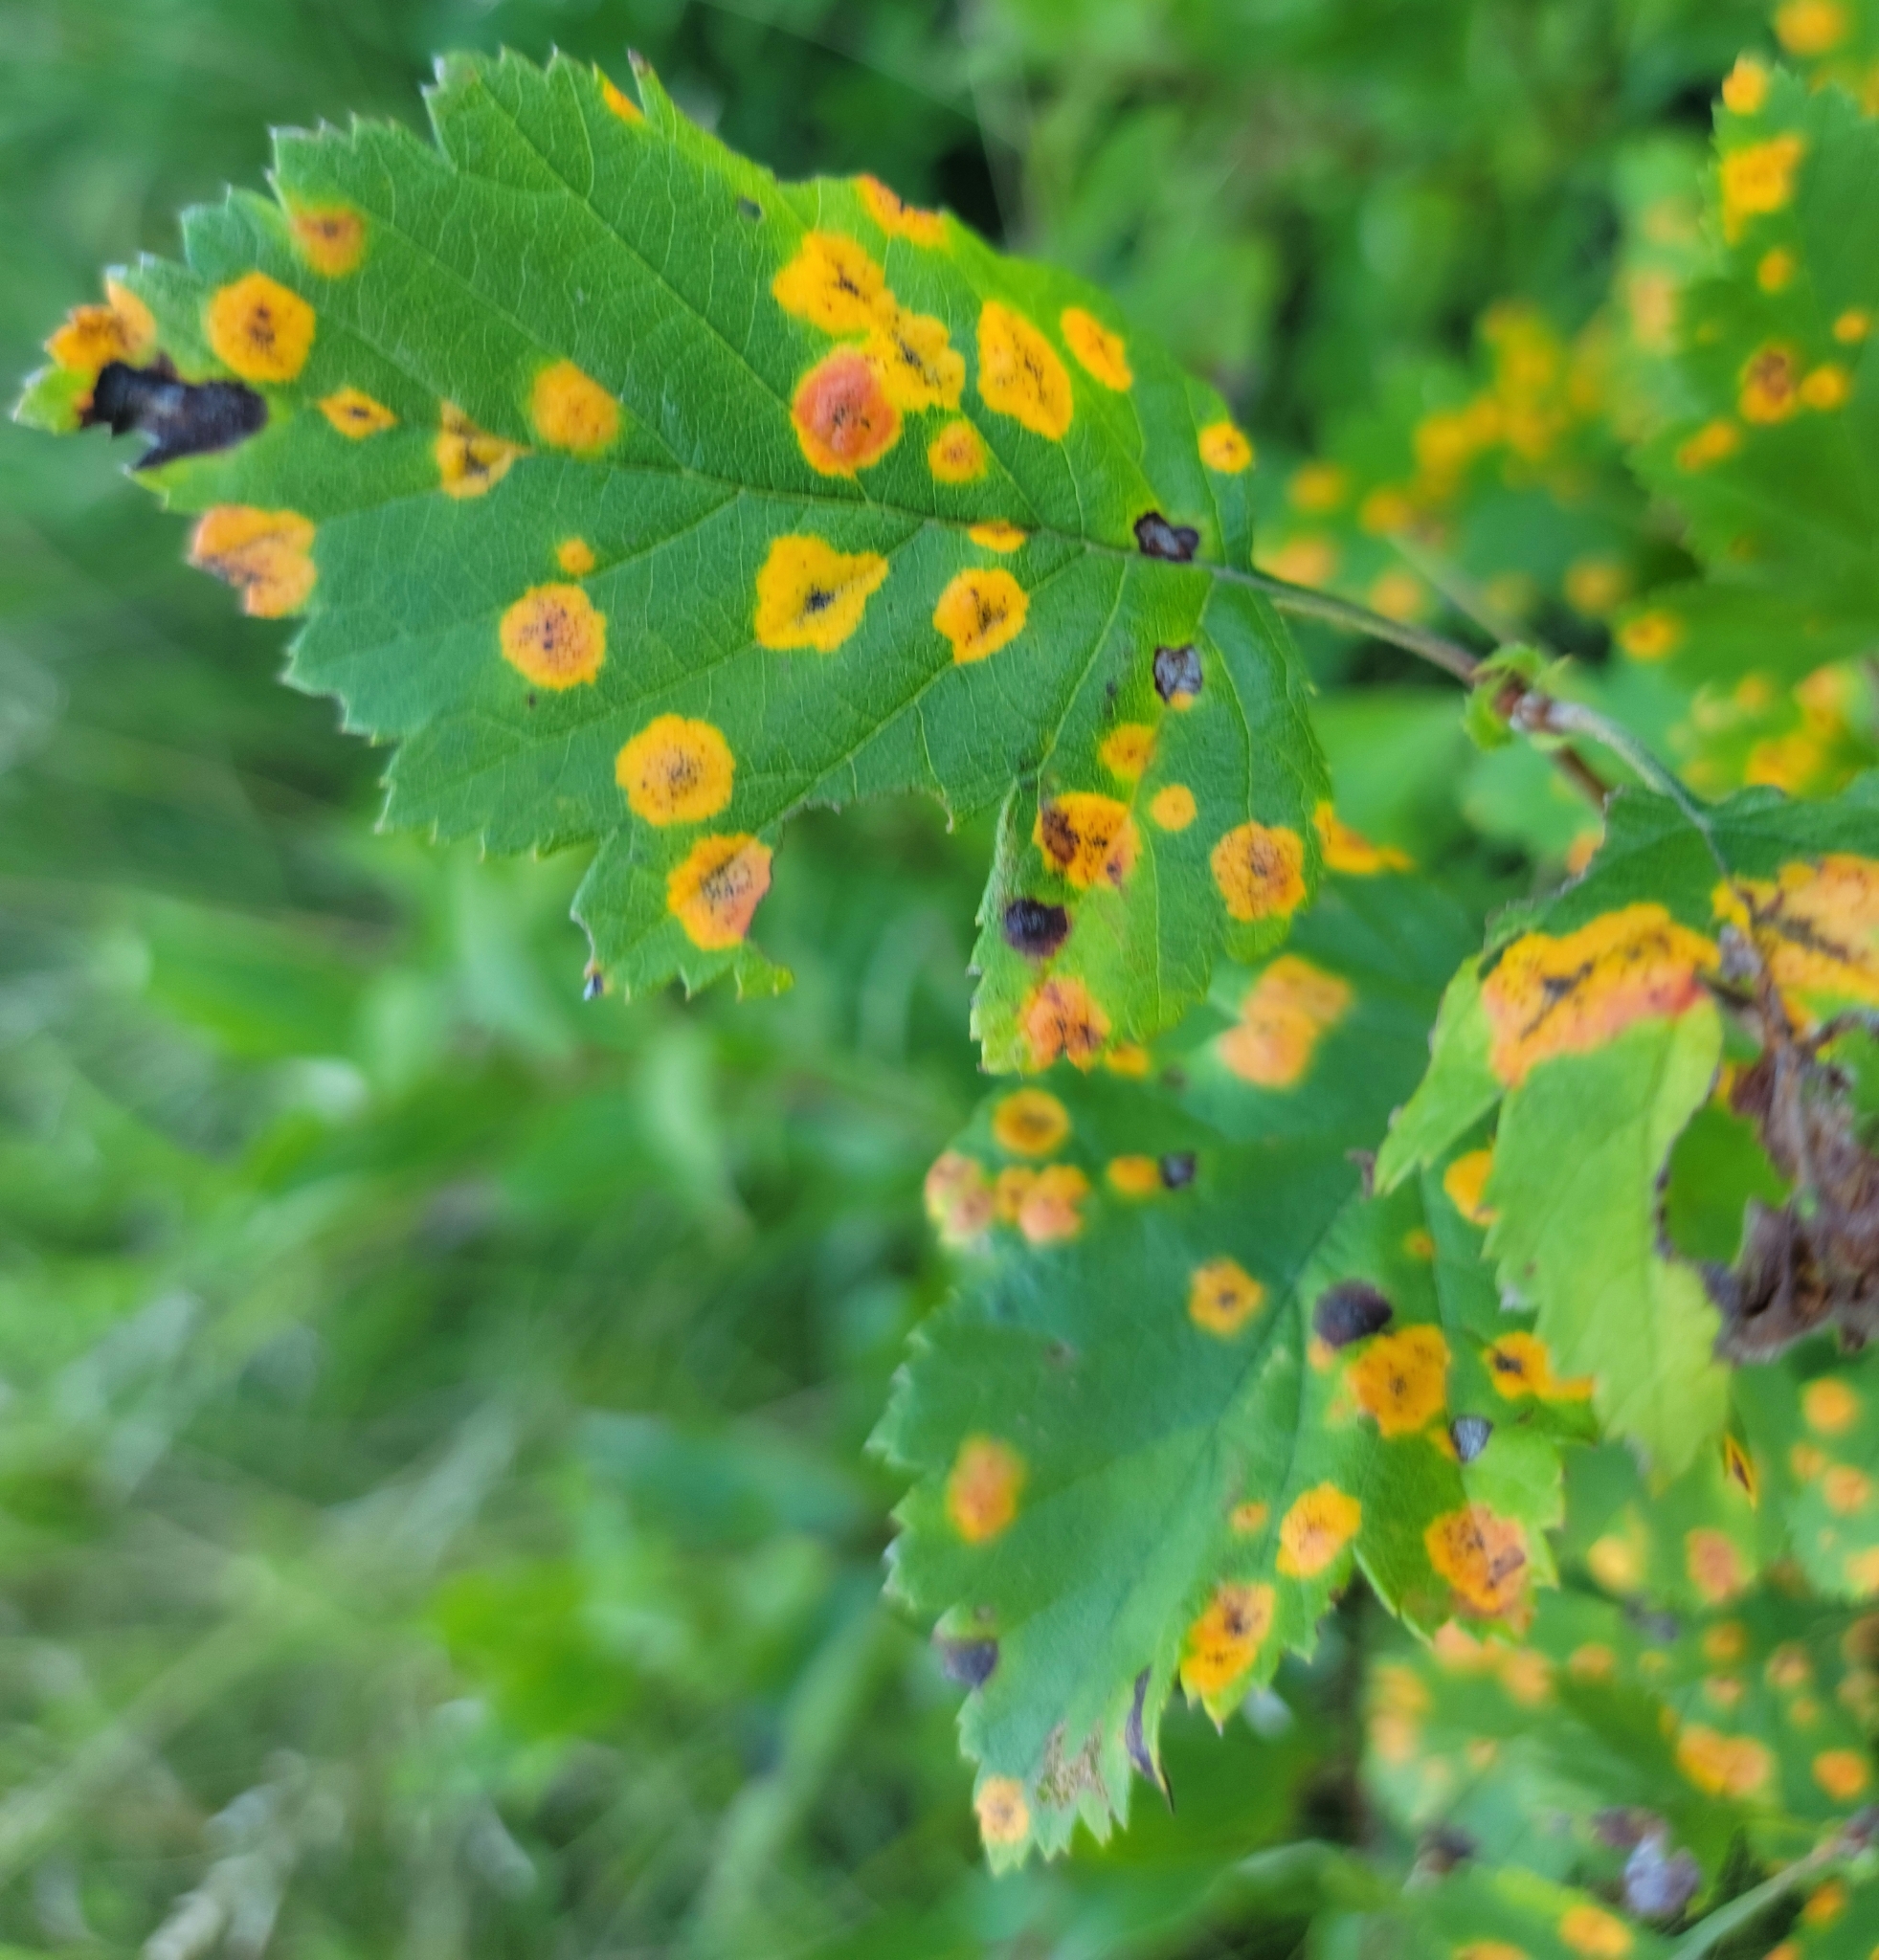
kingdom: Fungi
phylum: Basidiomycota
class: Pucciniomycetes
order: Pucciniales
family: Gymnosporangiaceae
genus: Gymnosporangium
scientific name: Gymnosporangium globosum
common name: Juniper-hawthorn rust
